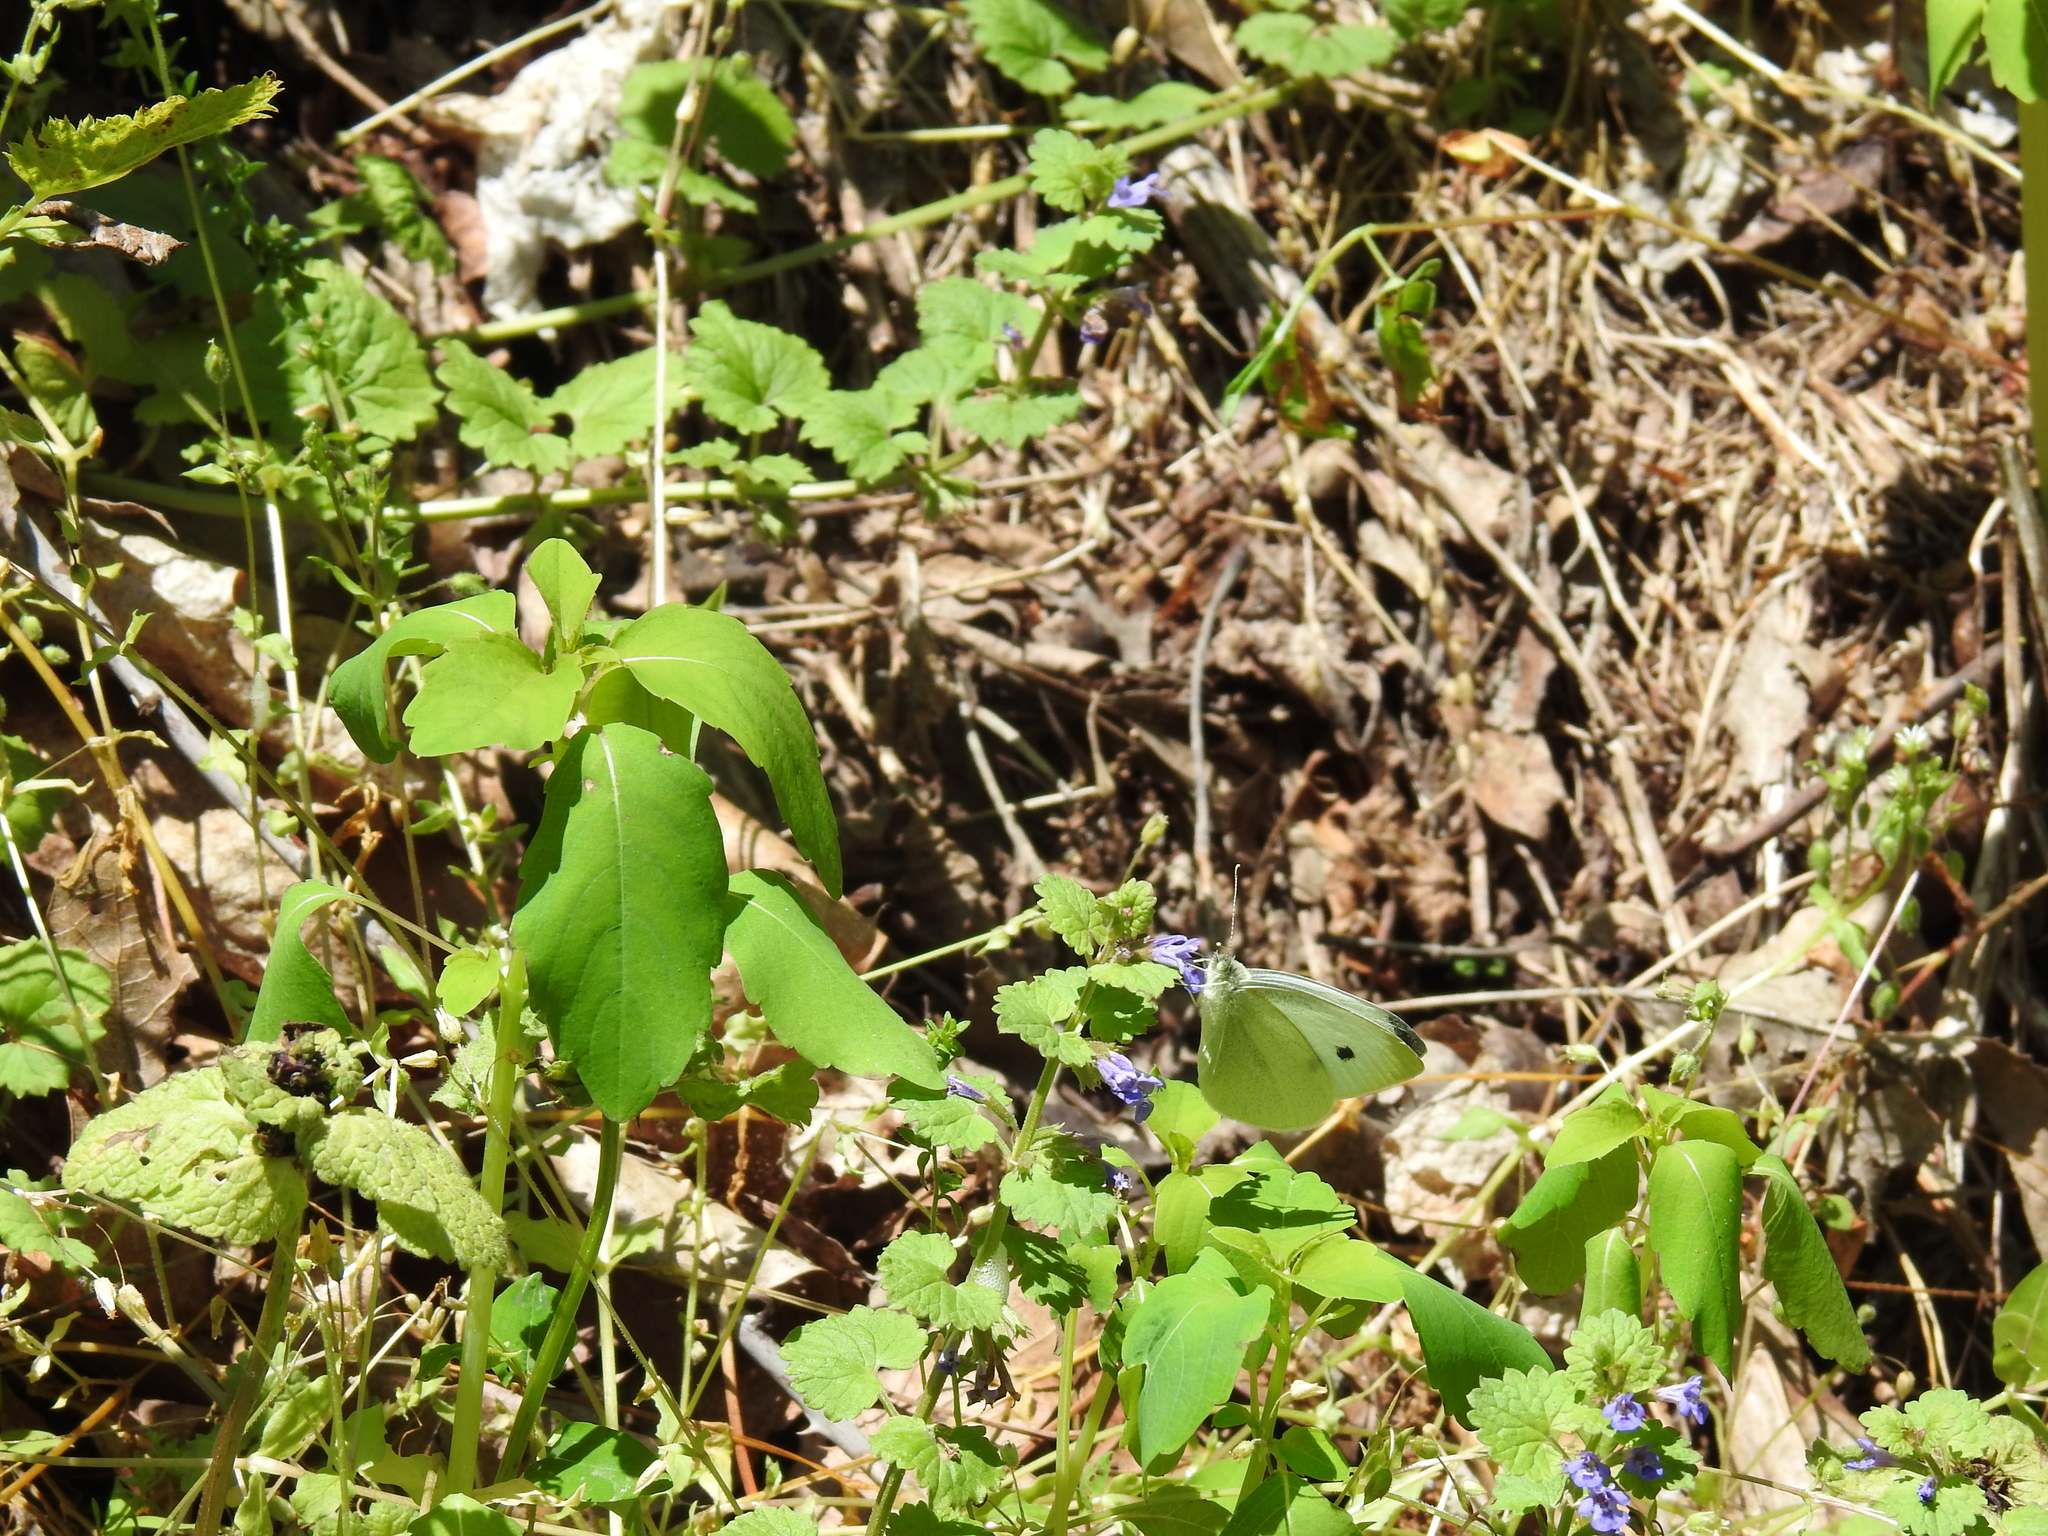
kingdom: Animalia
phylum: Arthropoda
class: Insecta
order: Lepidoptera
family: Pieridae
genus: Pieris
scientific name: Pieris rapae
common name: Small white
